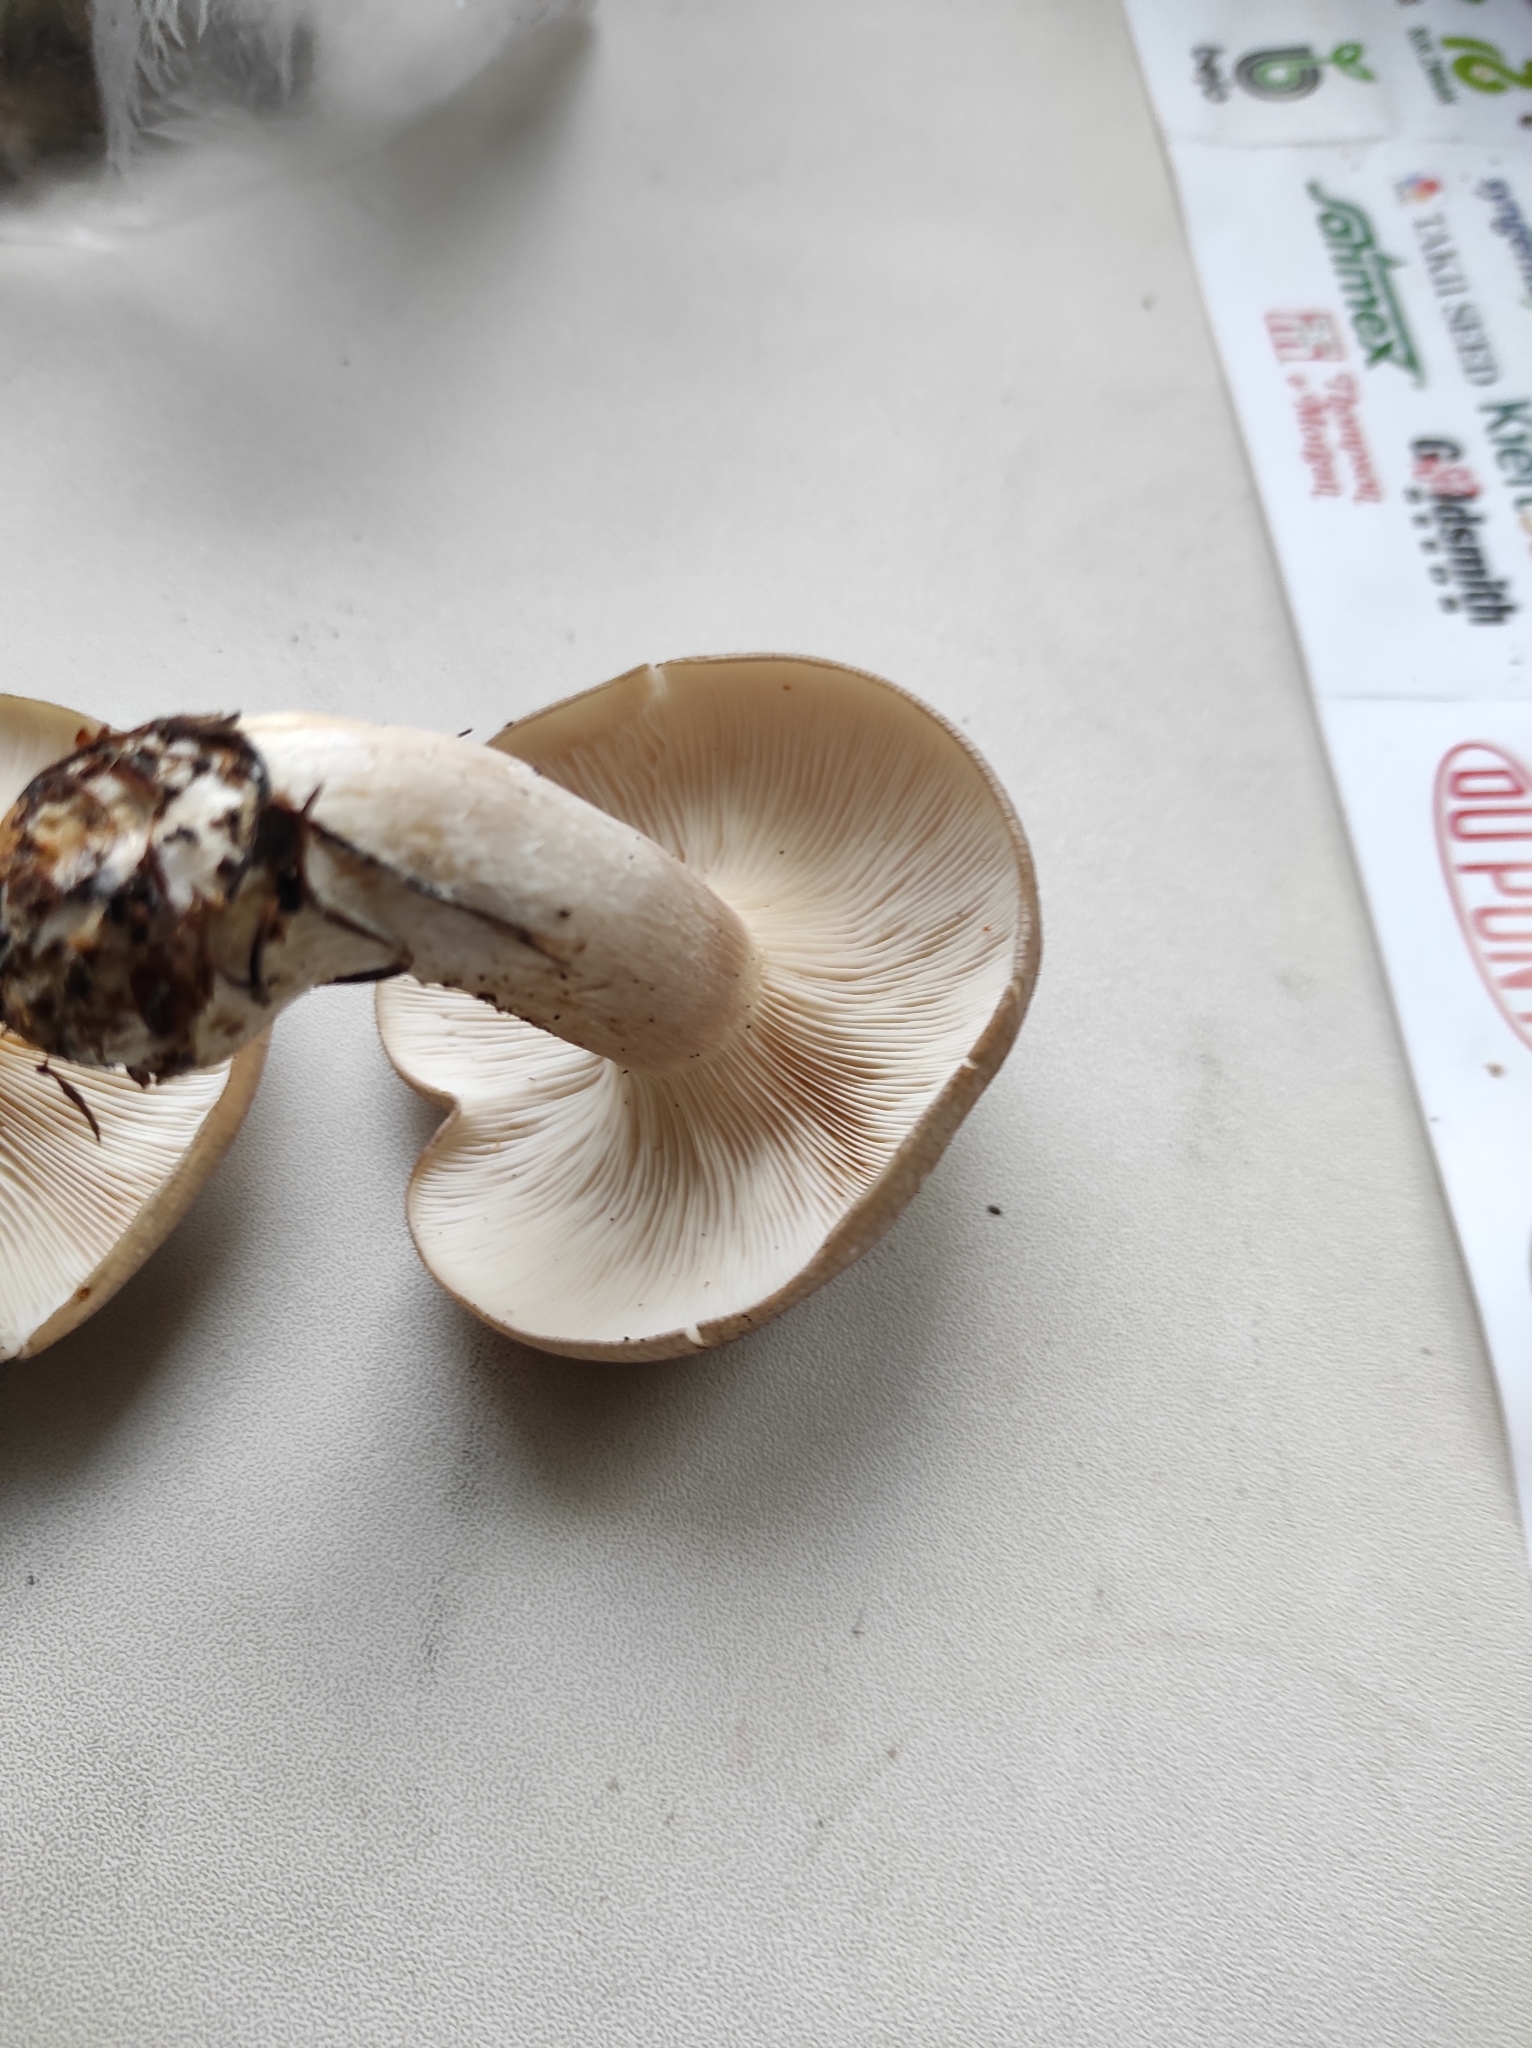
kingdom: Fungi
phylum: Basidiomycota
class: Agaricomycetes
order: Agaricales
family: Tricholomataceae
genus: Clitocybe
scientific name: Clitocybe nebularis
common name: Clouded agaric
